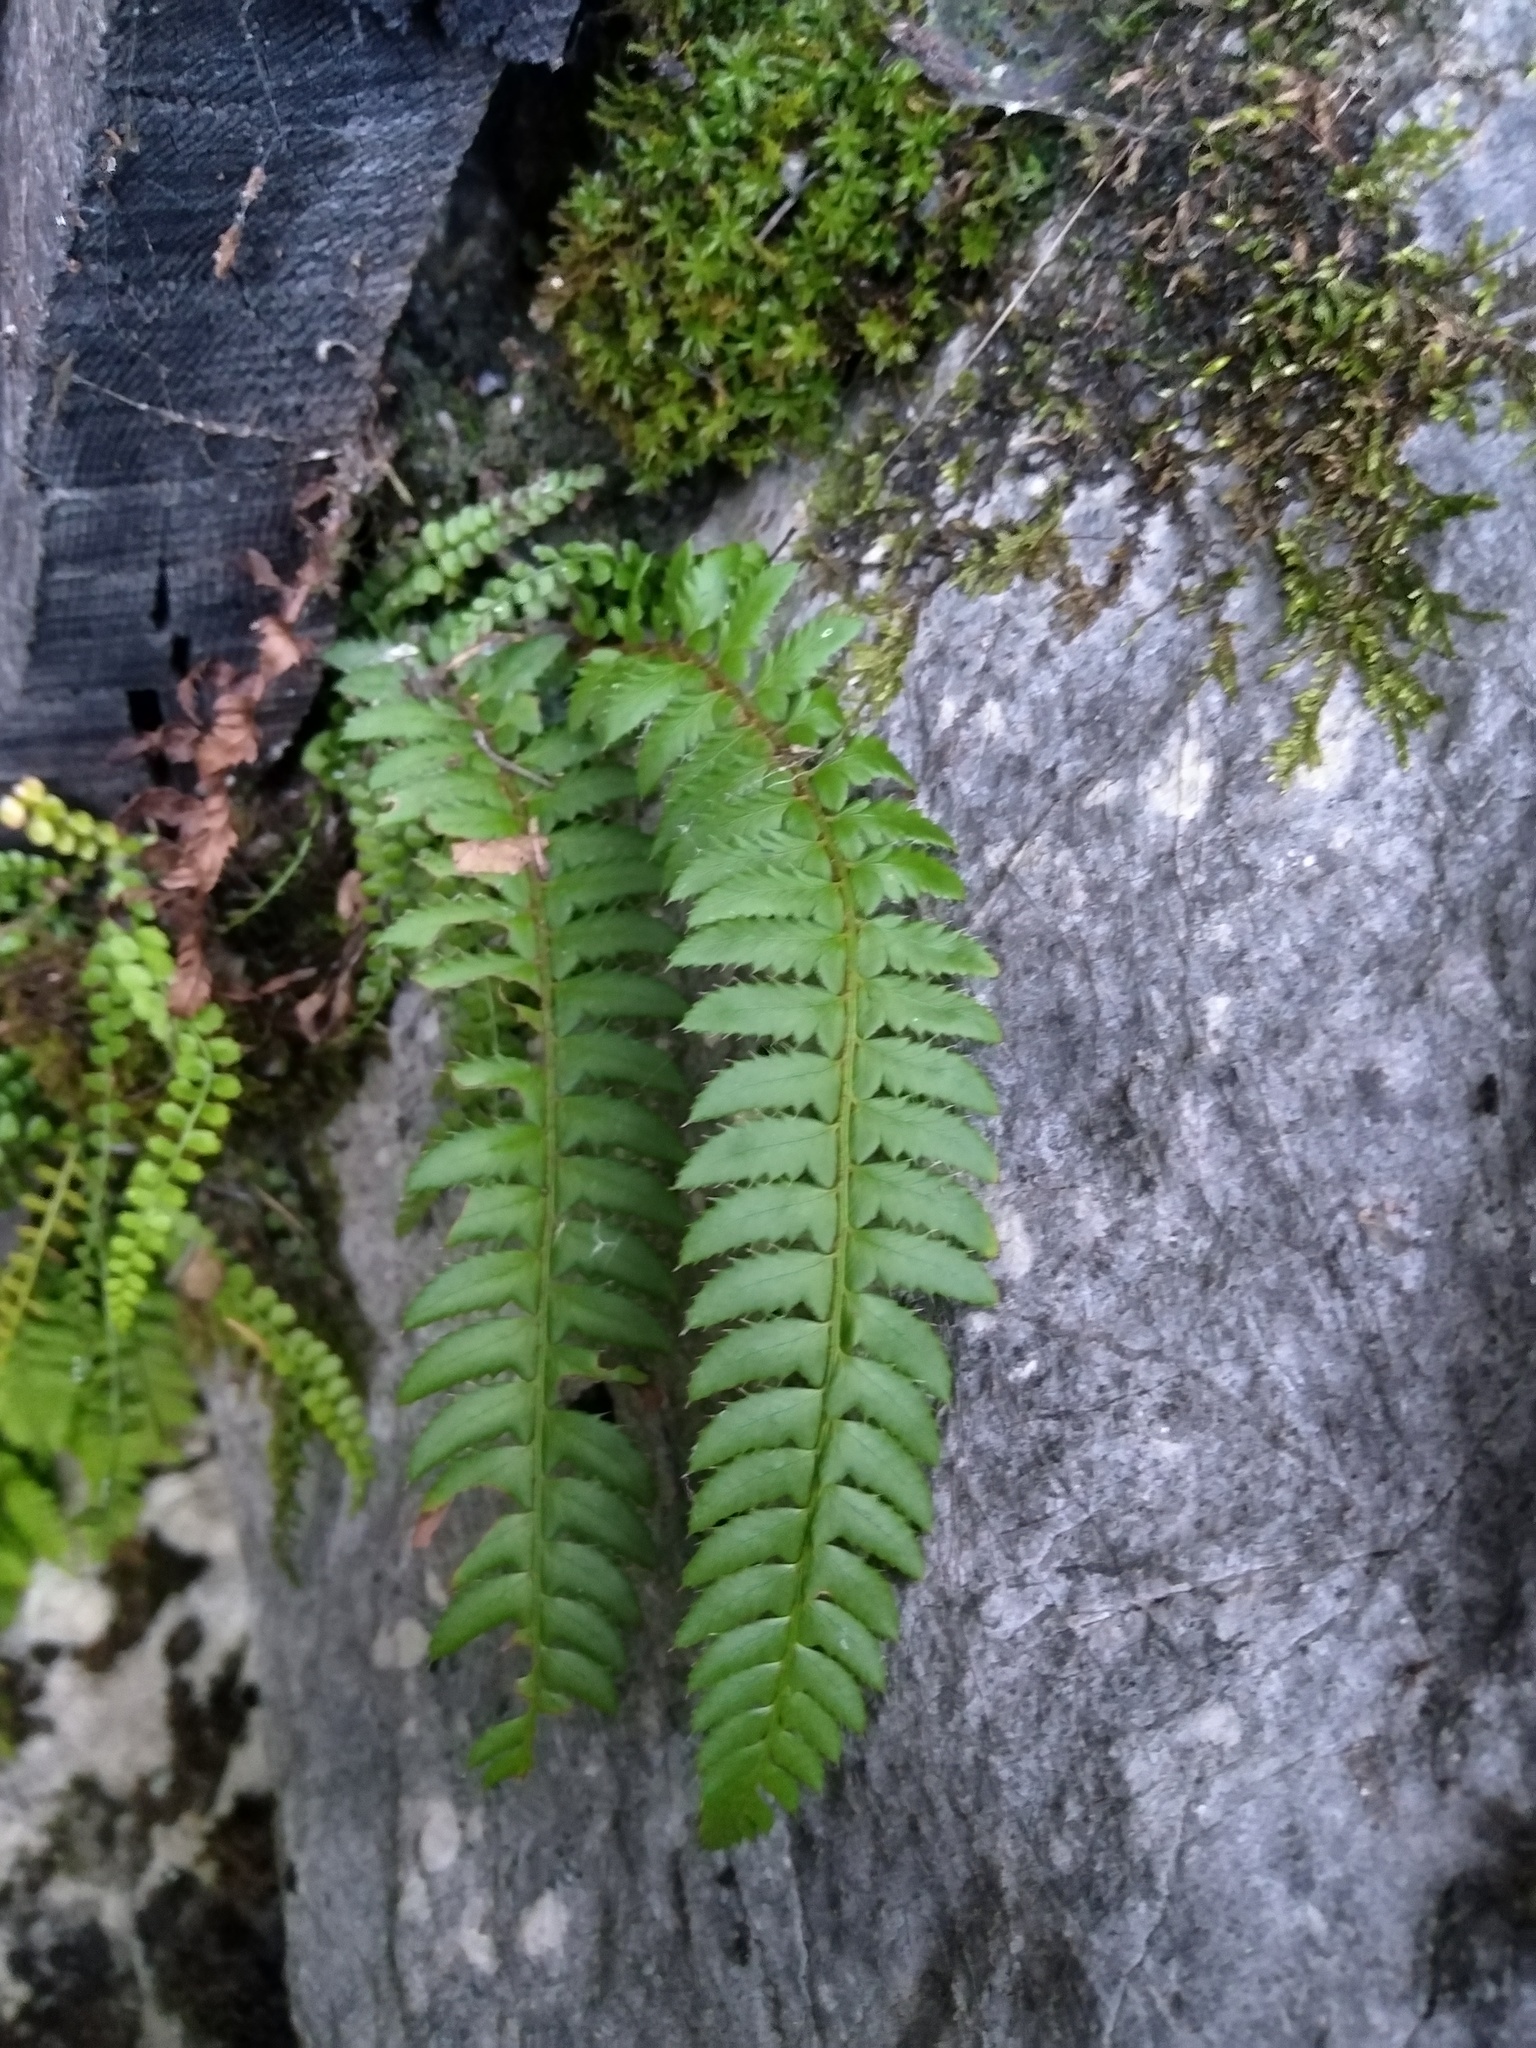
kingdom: Plantae
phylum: Tracheophyta
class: Polypodiopsida
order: Polypodiales
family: Dryopteridaceae
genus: Polystichum
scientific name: Polystichum aculeatum
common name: Hard shield-fern
